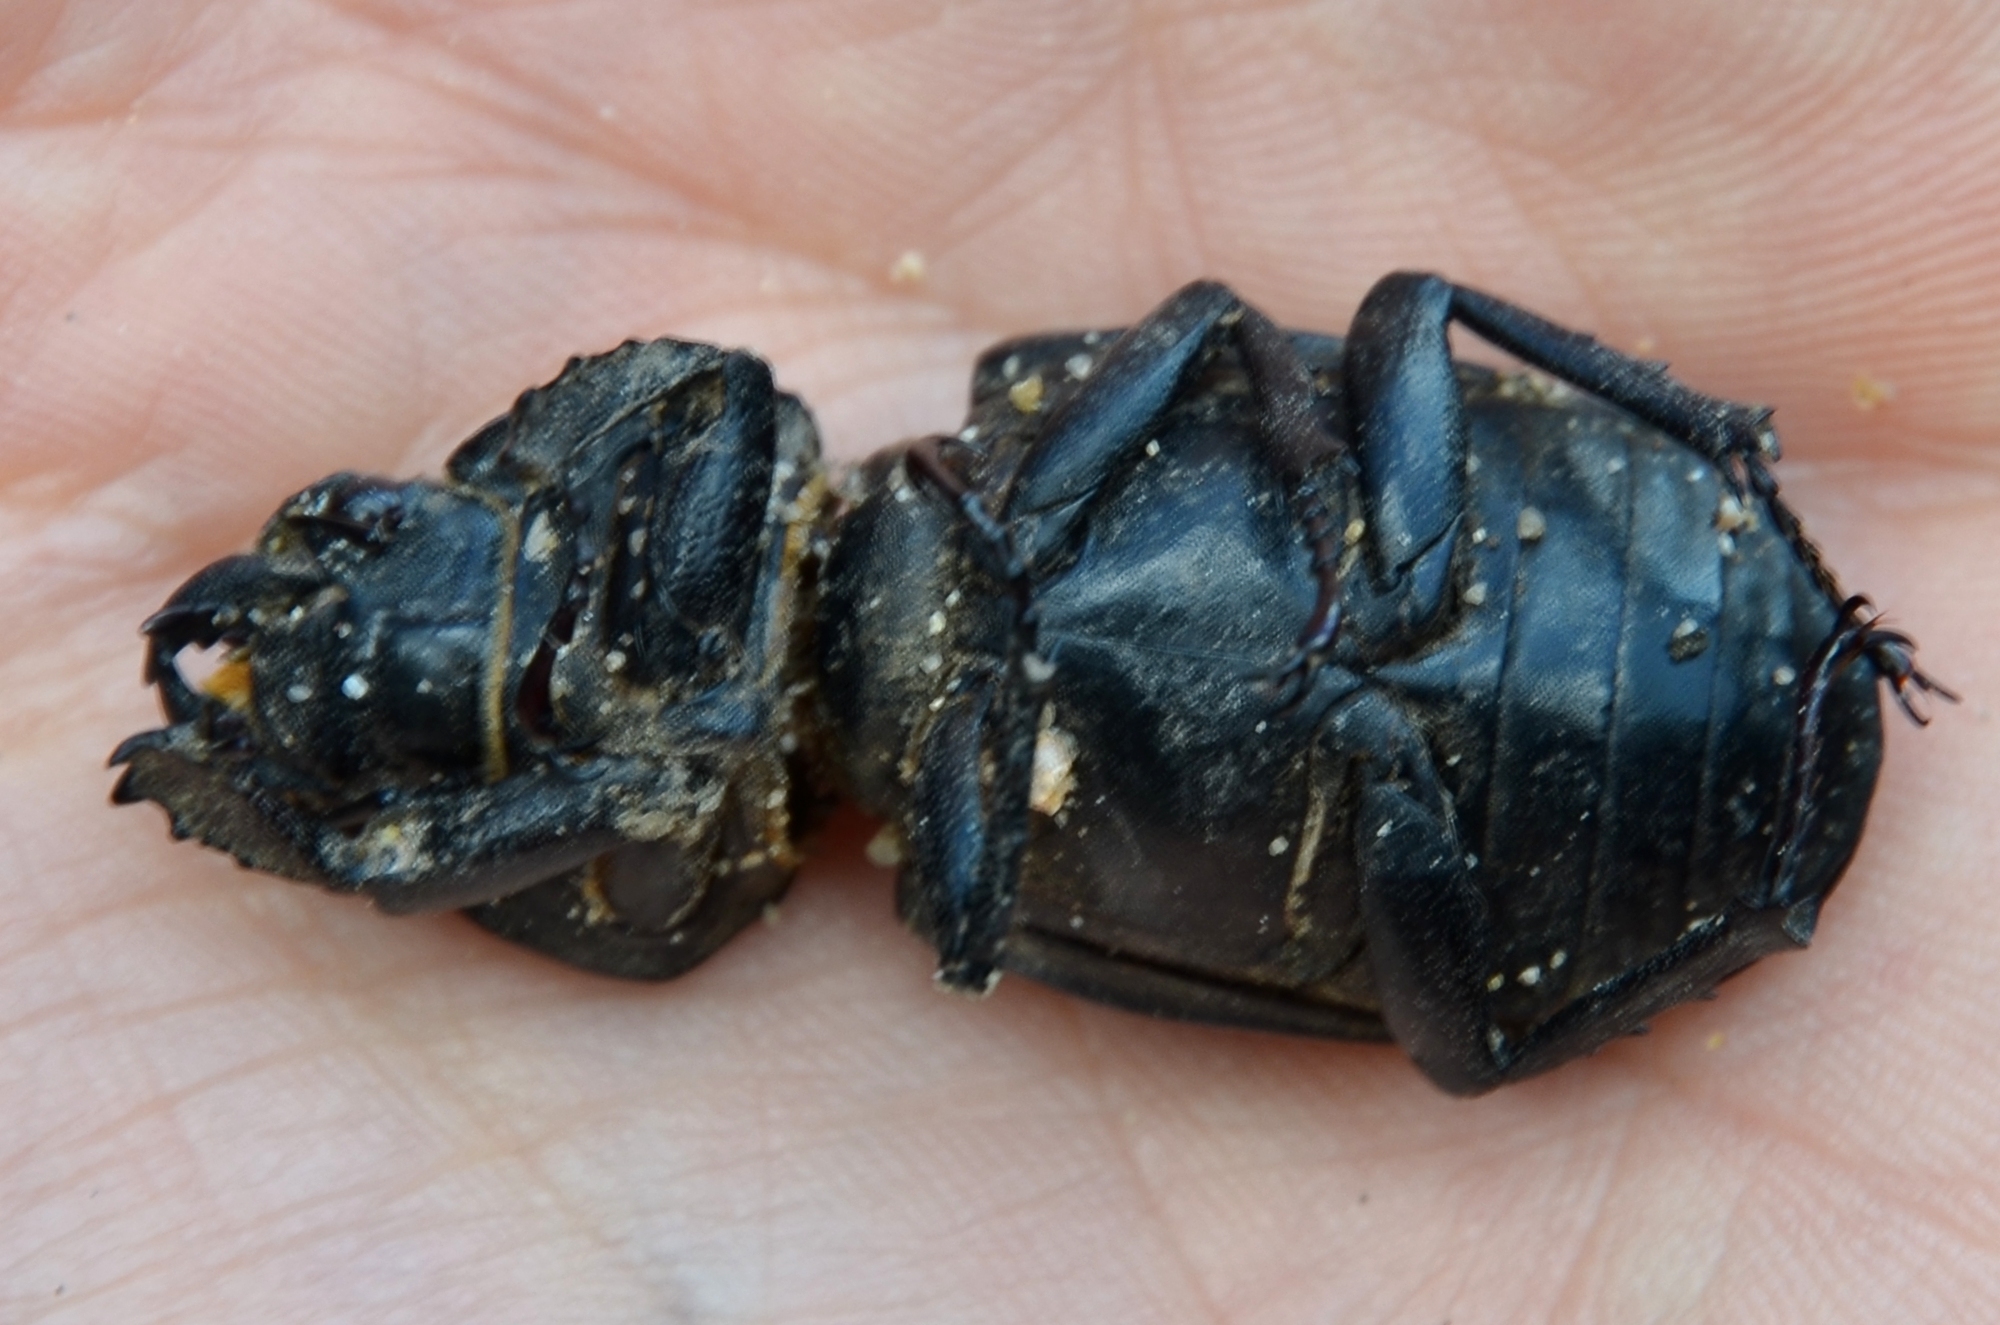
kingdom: Animalia
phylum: Arthropoda
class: Insecta
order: Coleoptera
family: Lucanidae
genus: Lucanus
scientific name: Lucanus cervus
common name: Stag beetle
